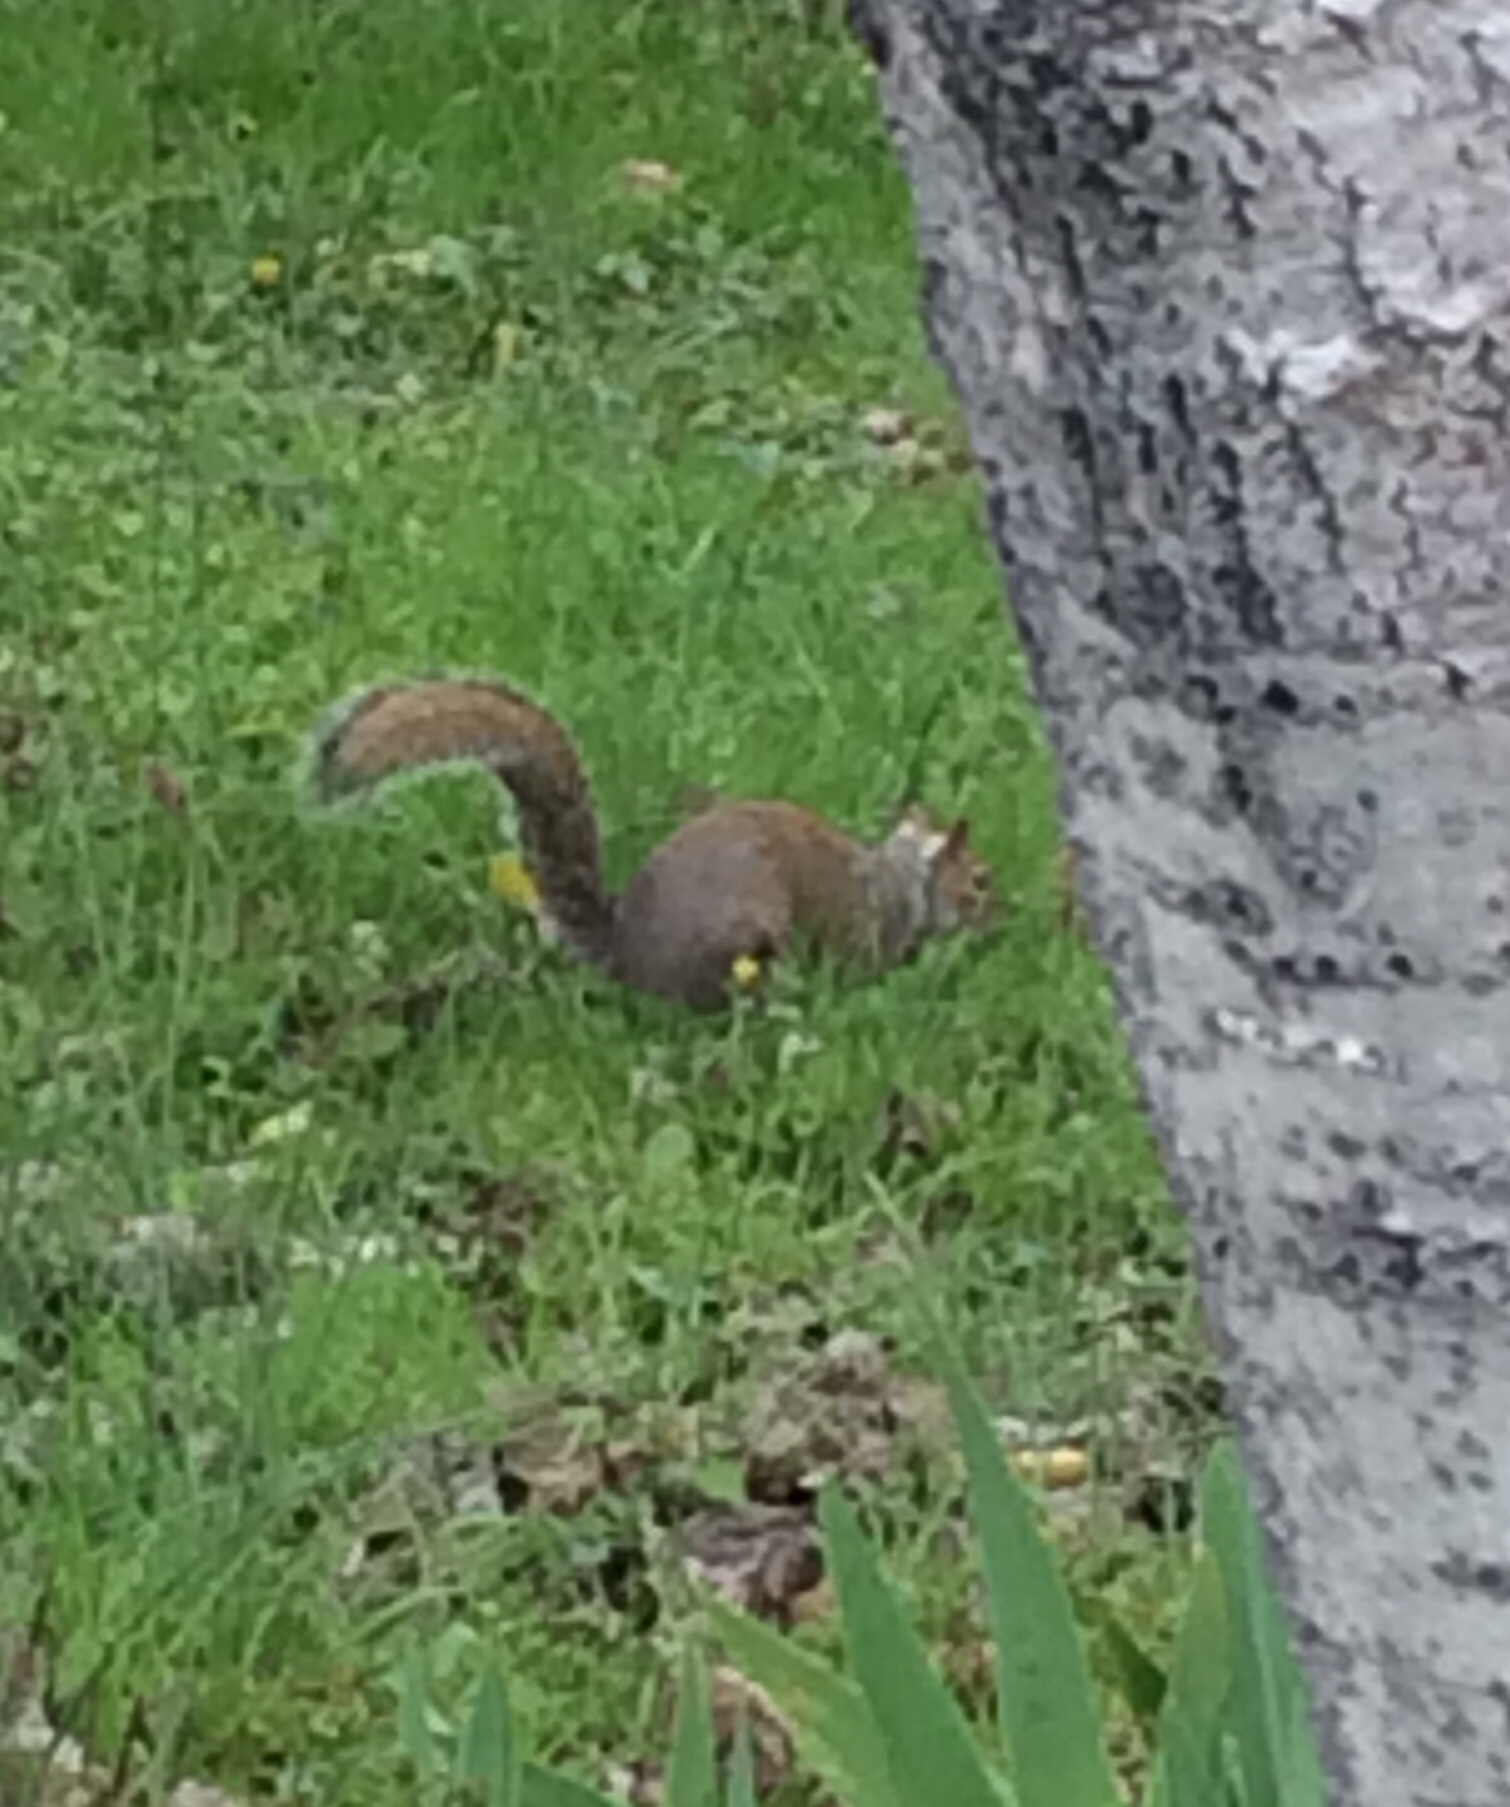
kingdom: Animalia
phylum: Chordata
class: Mammalia
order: Rodentia
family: Sciuridae
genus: Sciurus
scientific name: Sciurus carolinensis
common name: Eastern gray squirrel
